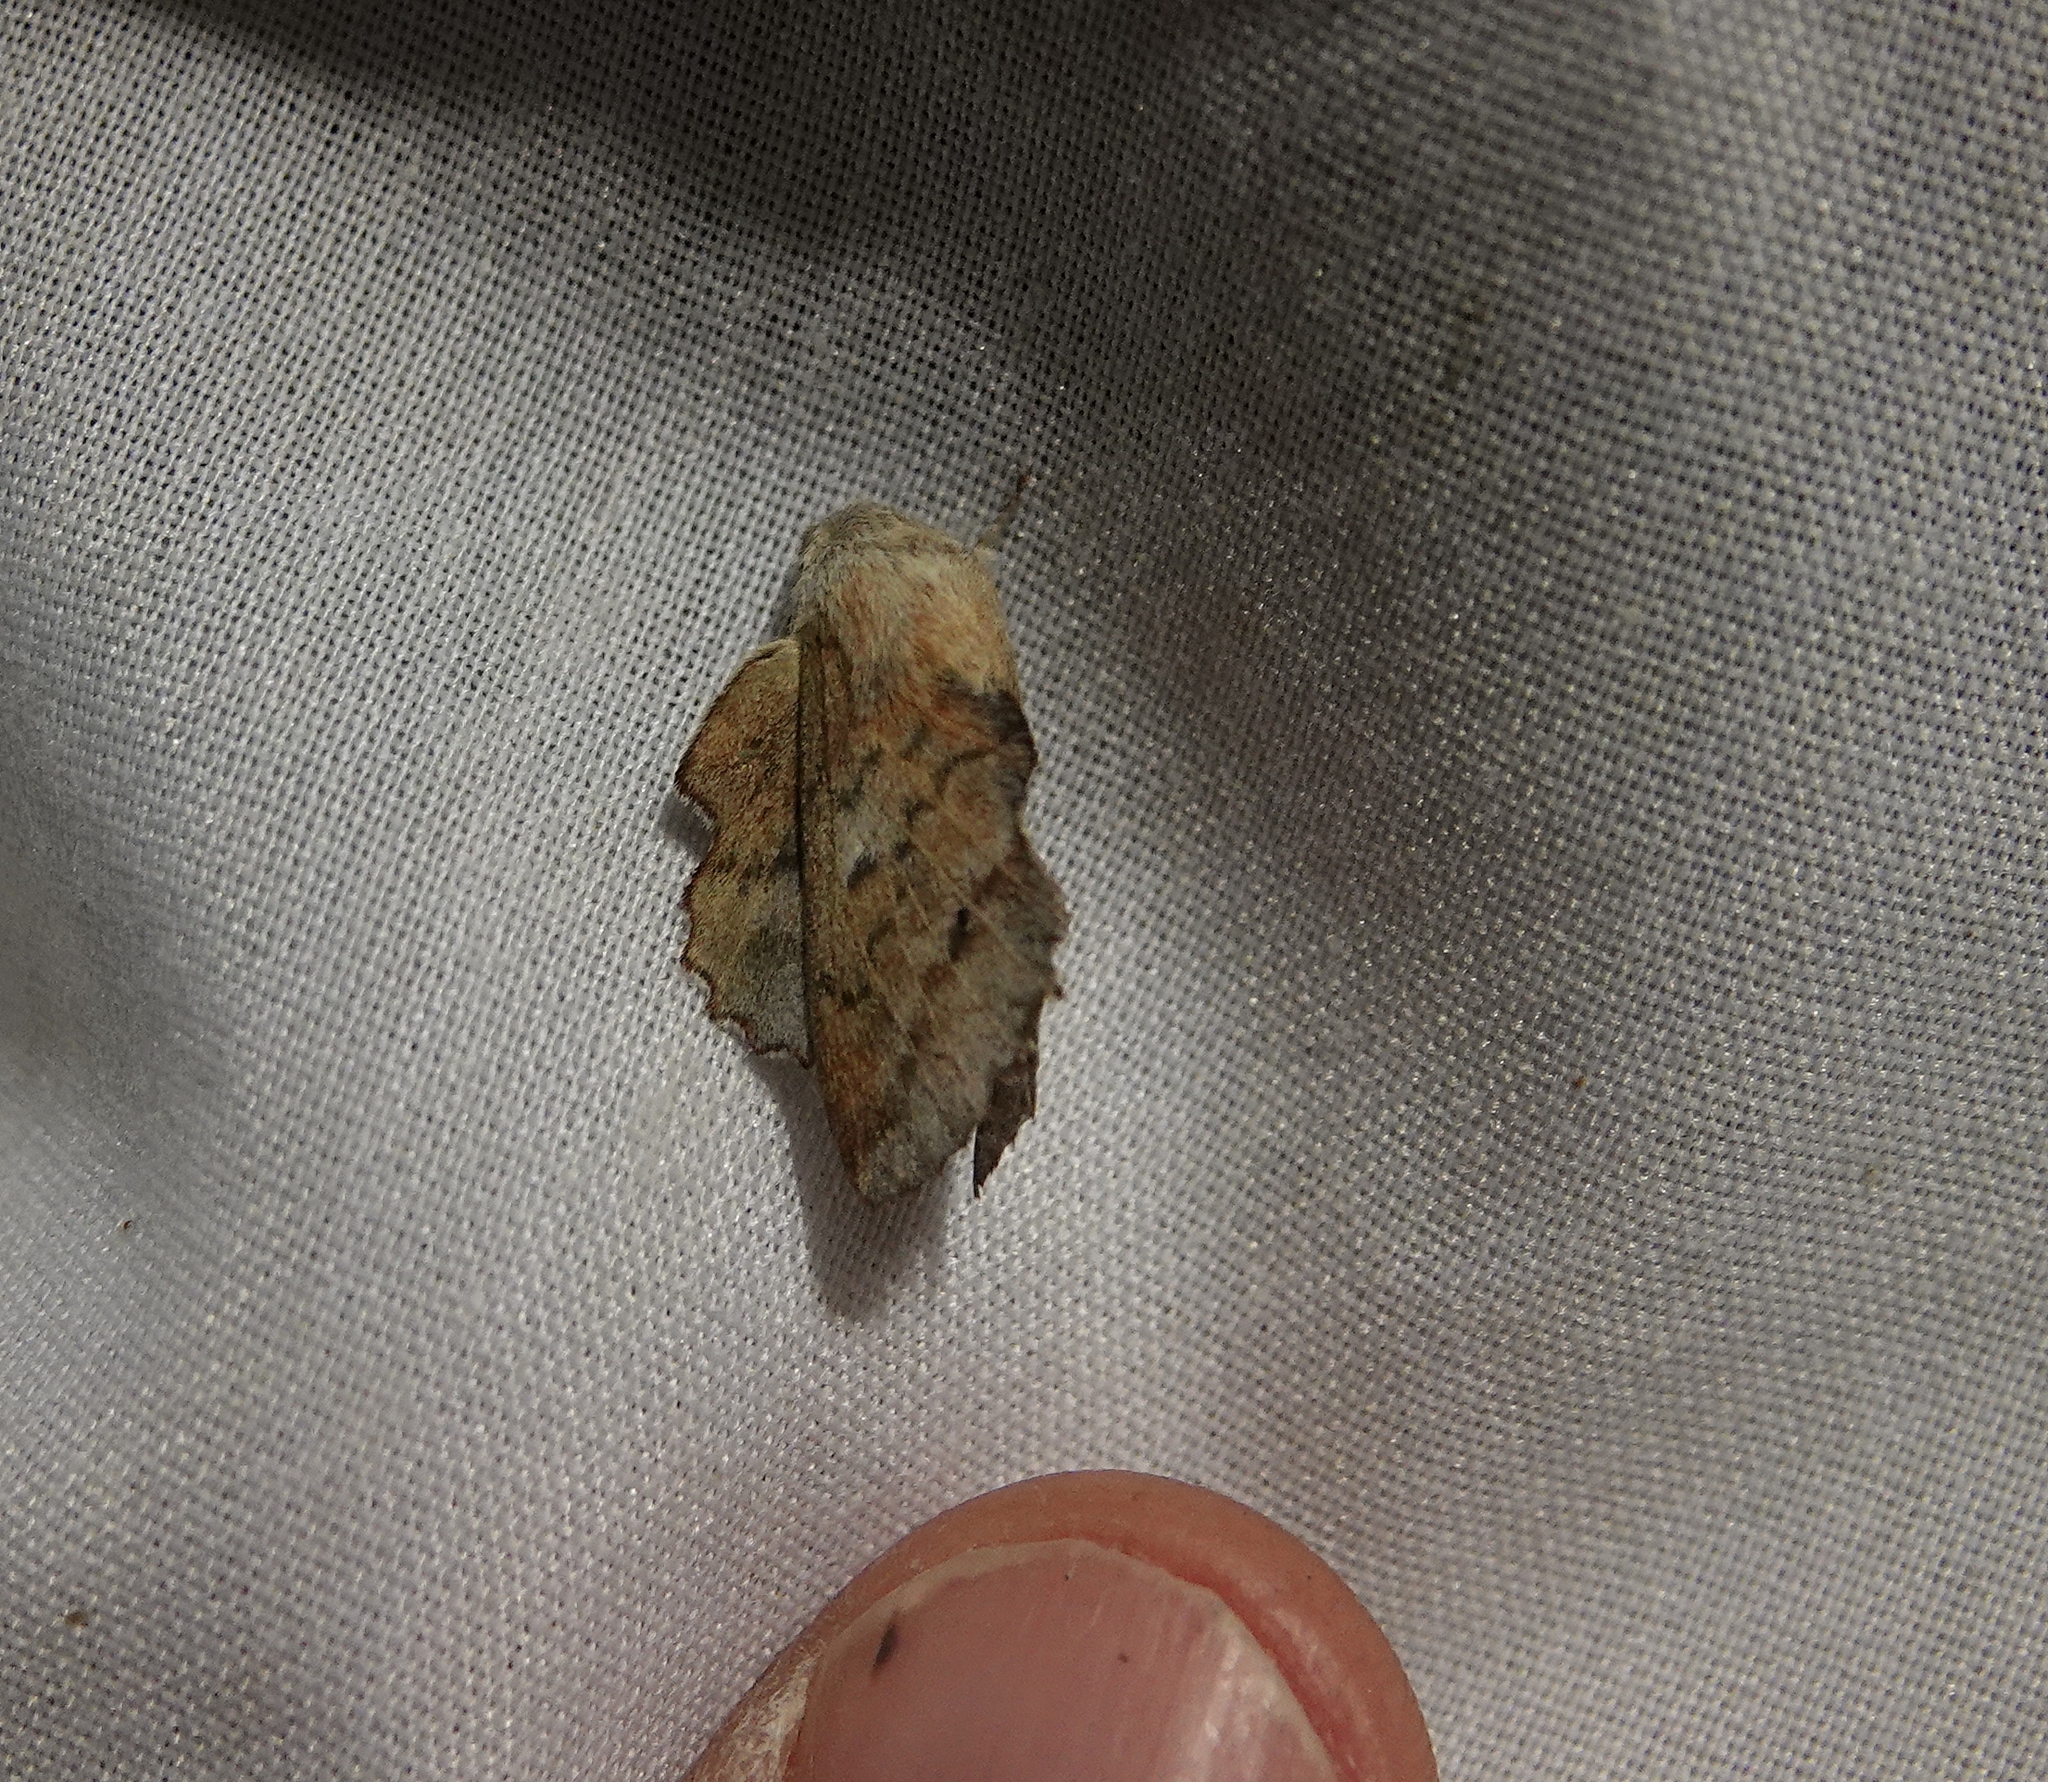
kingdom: Animalia
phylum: Arthropoda
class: Insecta
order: Lepidoptera
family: Lasiocampidae
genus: Phyllodesma
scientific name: Phyllodesma americana
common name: American lappet moth
